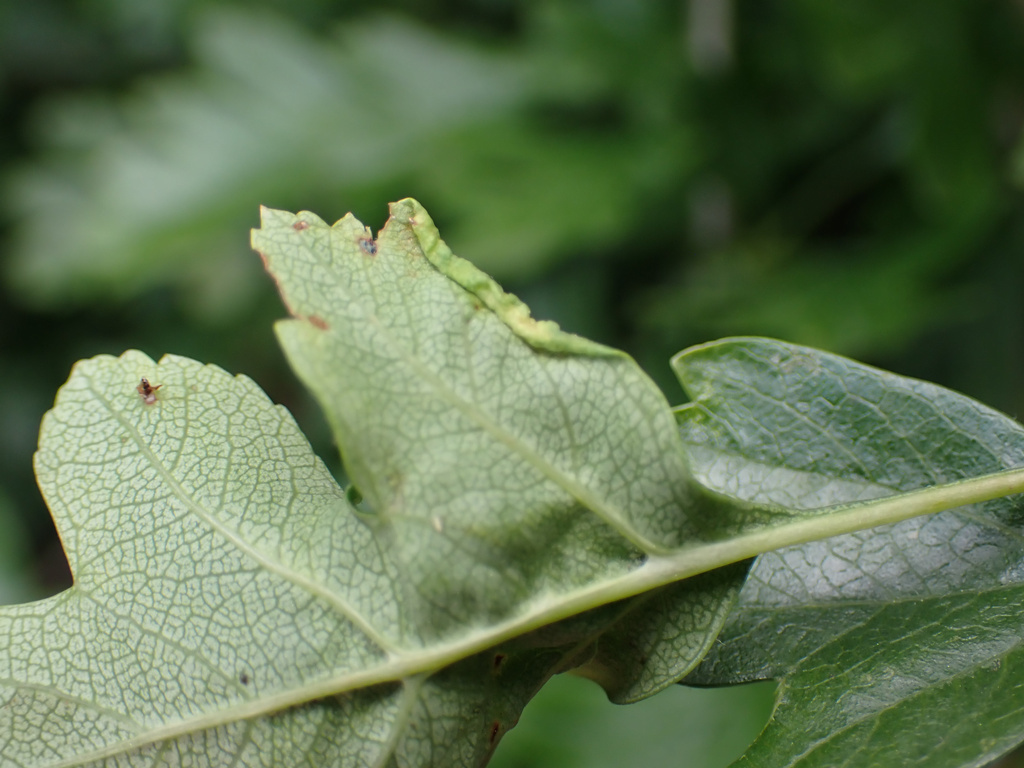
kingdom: Animalia
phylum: Arthropoda
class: Arachnida
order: Trombidiformes
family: Eriophyidae
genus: Phyllocoptes
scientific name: Phyllocoptes goniothorax
